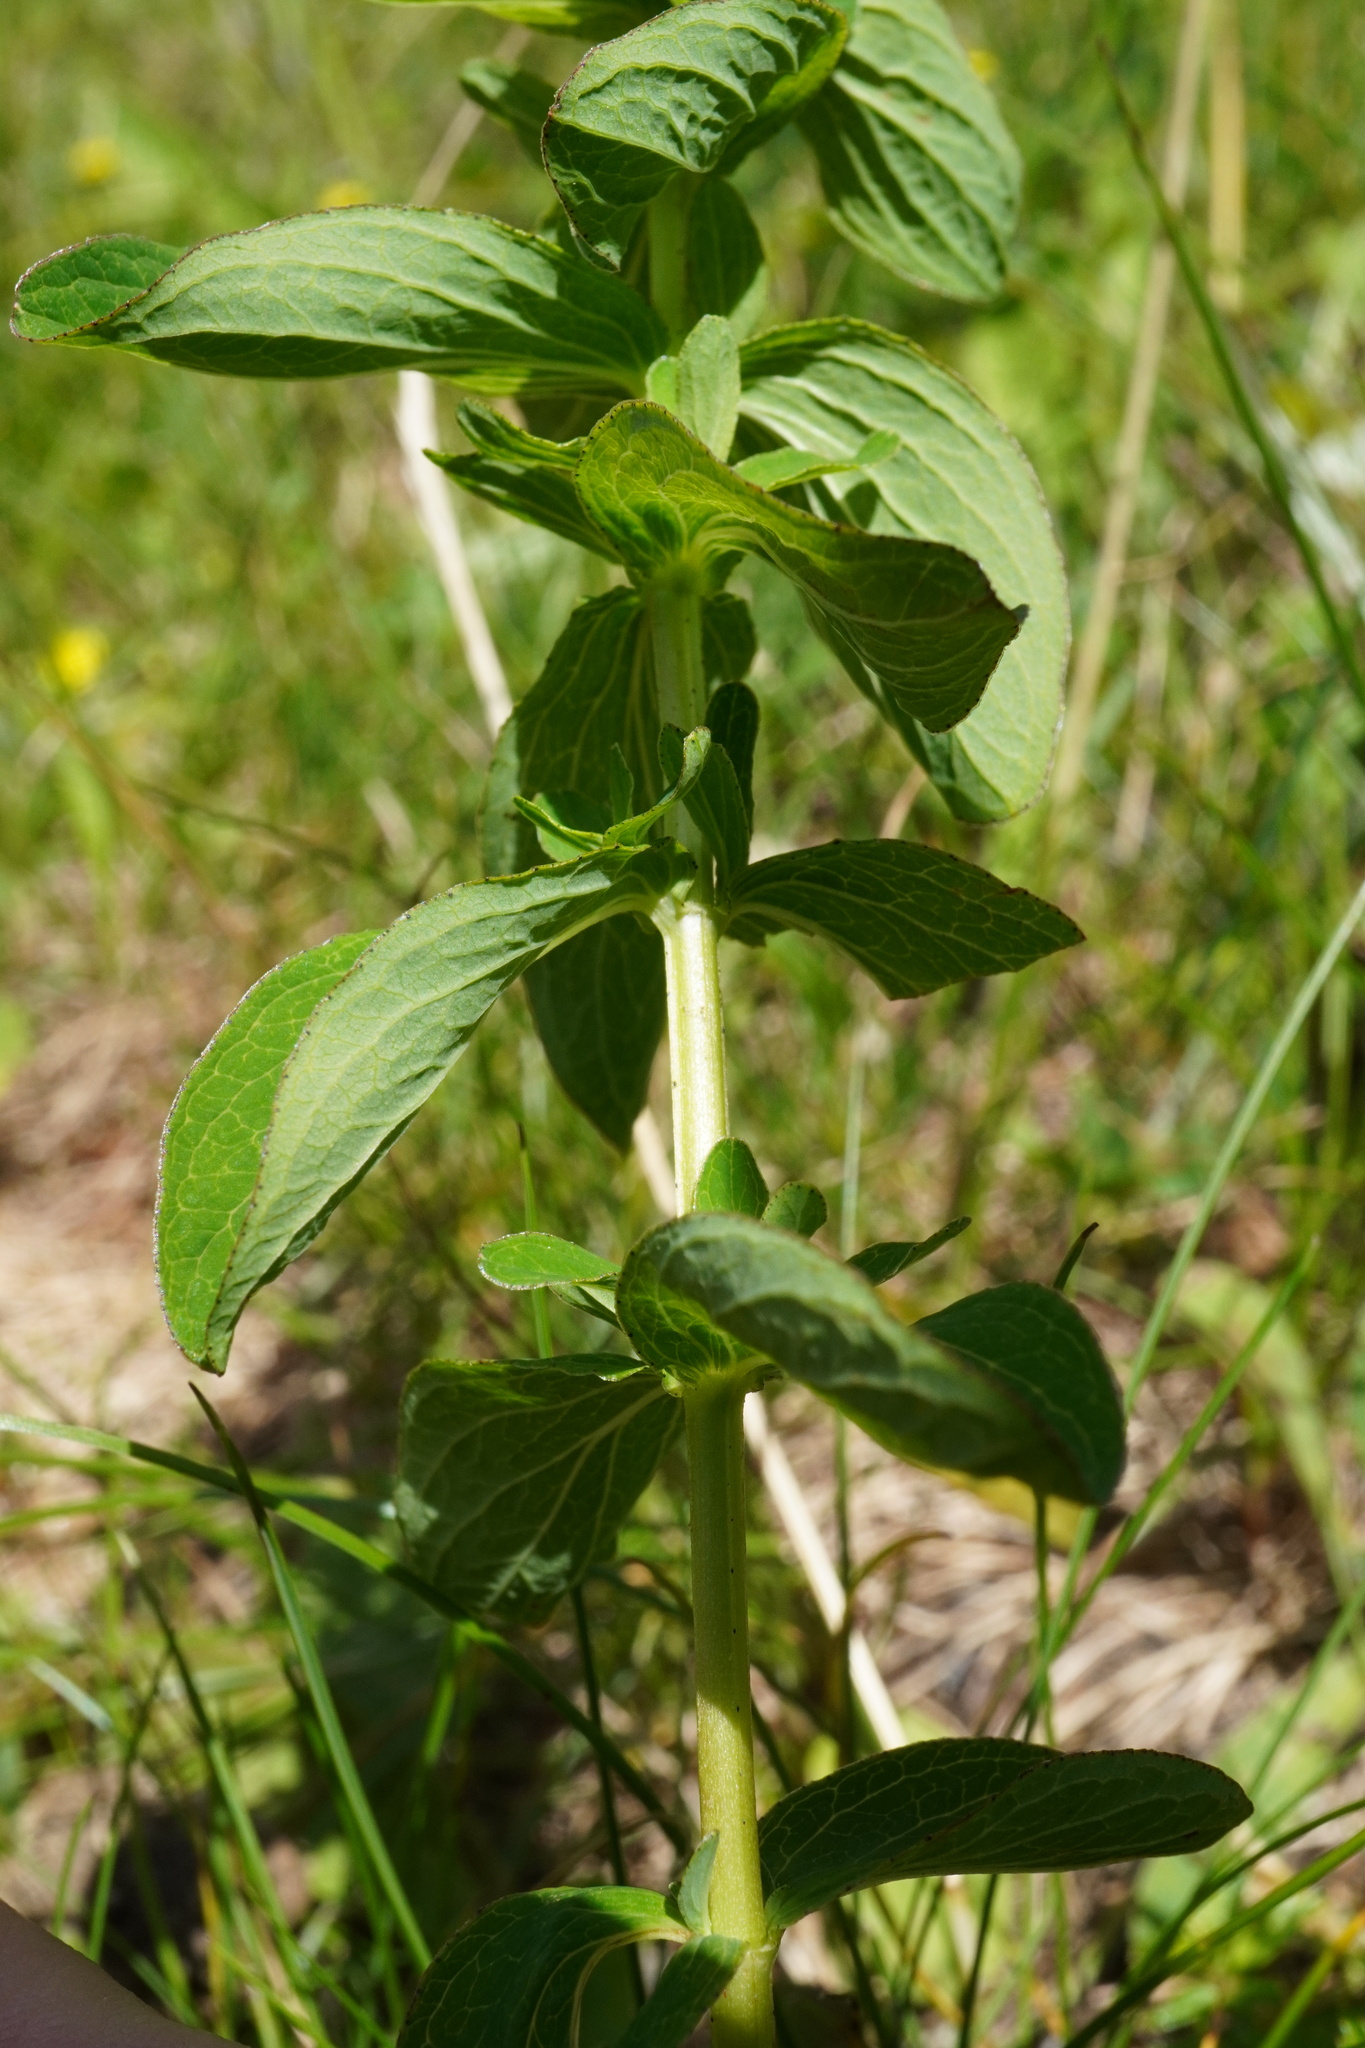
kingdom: Plantae
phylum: Tracheophyta
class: Magnoliopsida
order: Malpighiales
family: Hypericaceae
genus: Hypericum
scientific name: Hypericum maculatum
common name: Imperforate st. john's-wort
